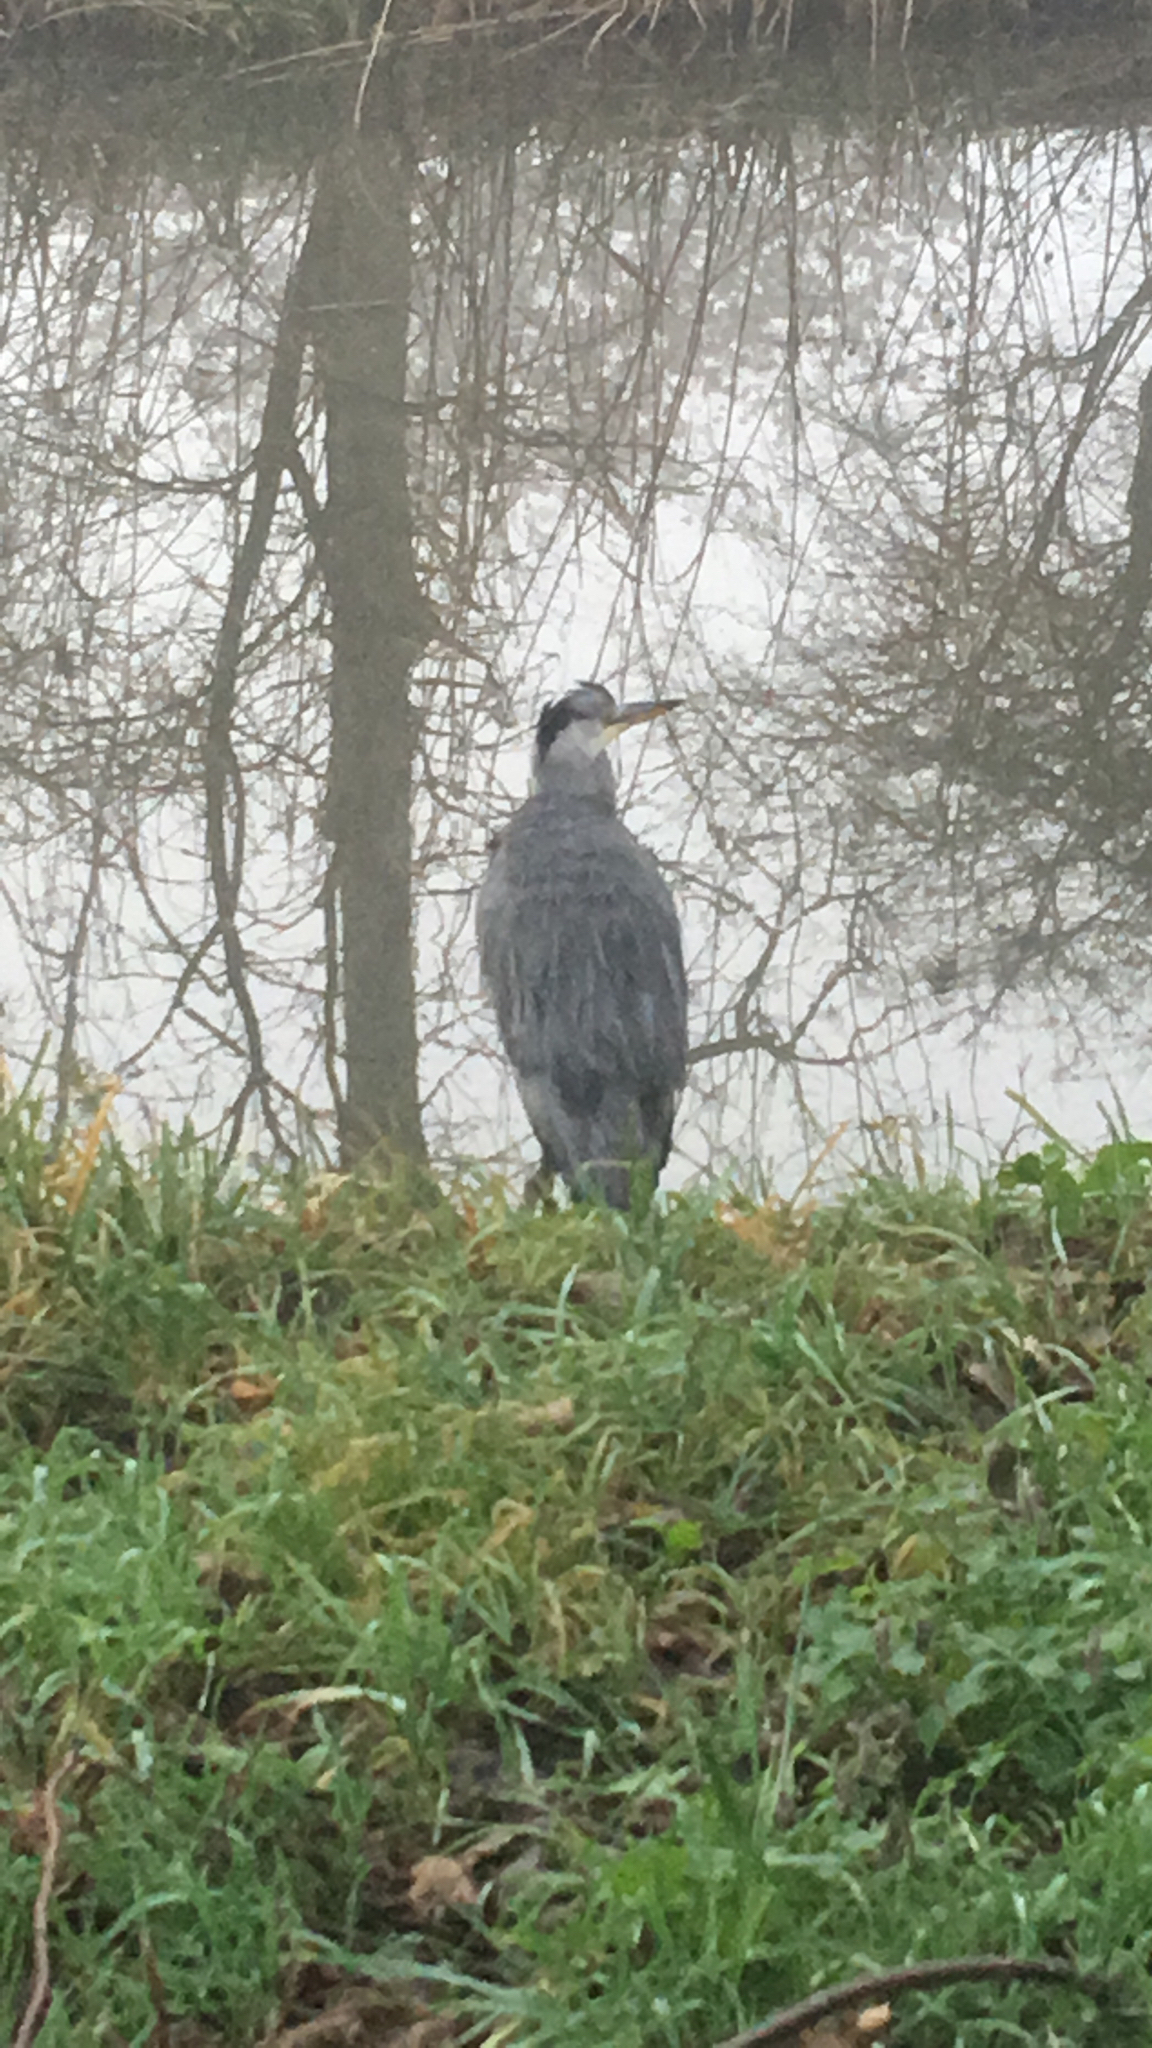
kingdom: Animalia
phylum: Chordata
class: Aves
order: Pelecaniformes
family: Ardeidae
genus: Ardea
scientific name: Ardea cinerea
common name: Grey heron
